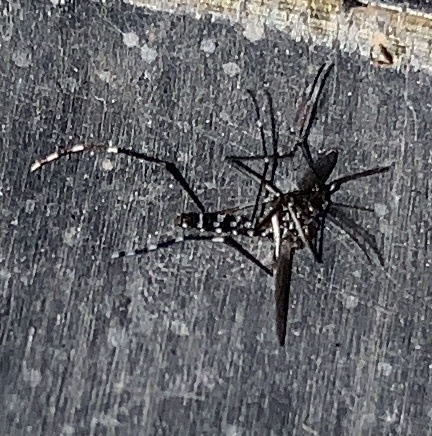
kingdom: Animalia
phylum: Arthropoda
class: Insecta
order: Diptera
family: Culicidae
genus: Aedes
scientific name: Aedes albopictus
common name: Tiger mosquito
